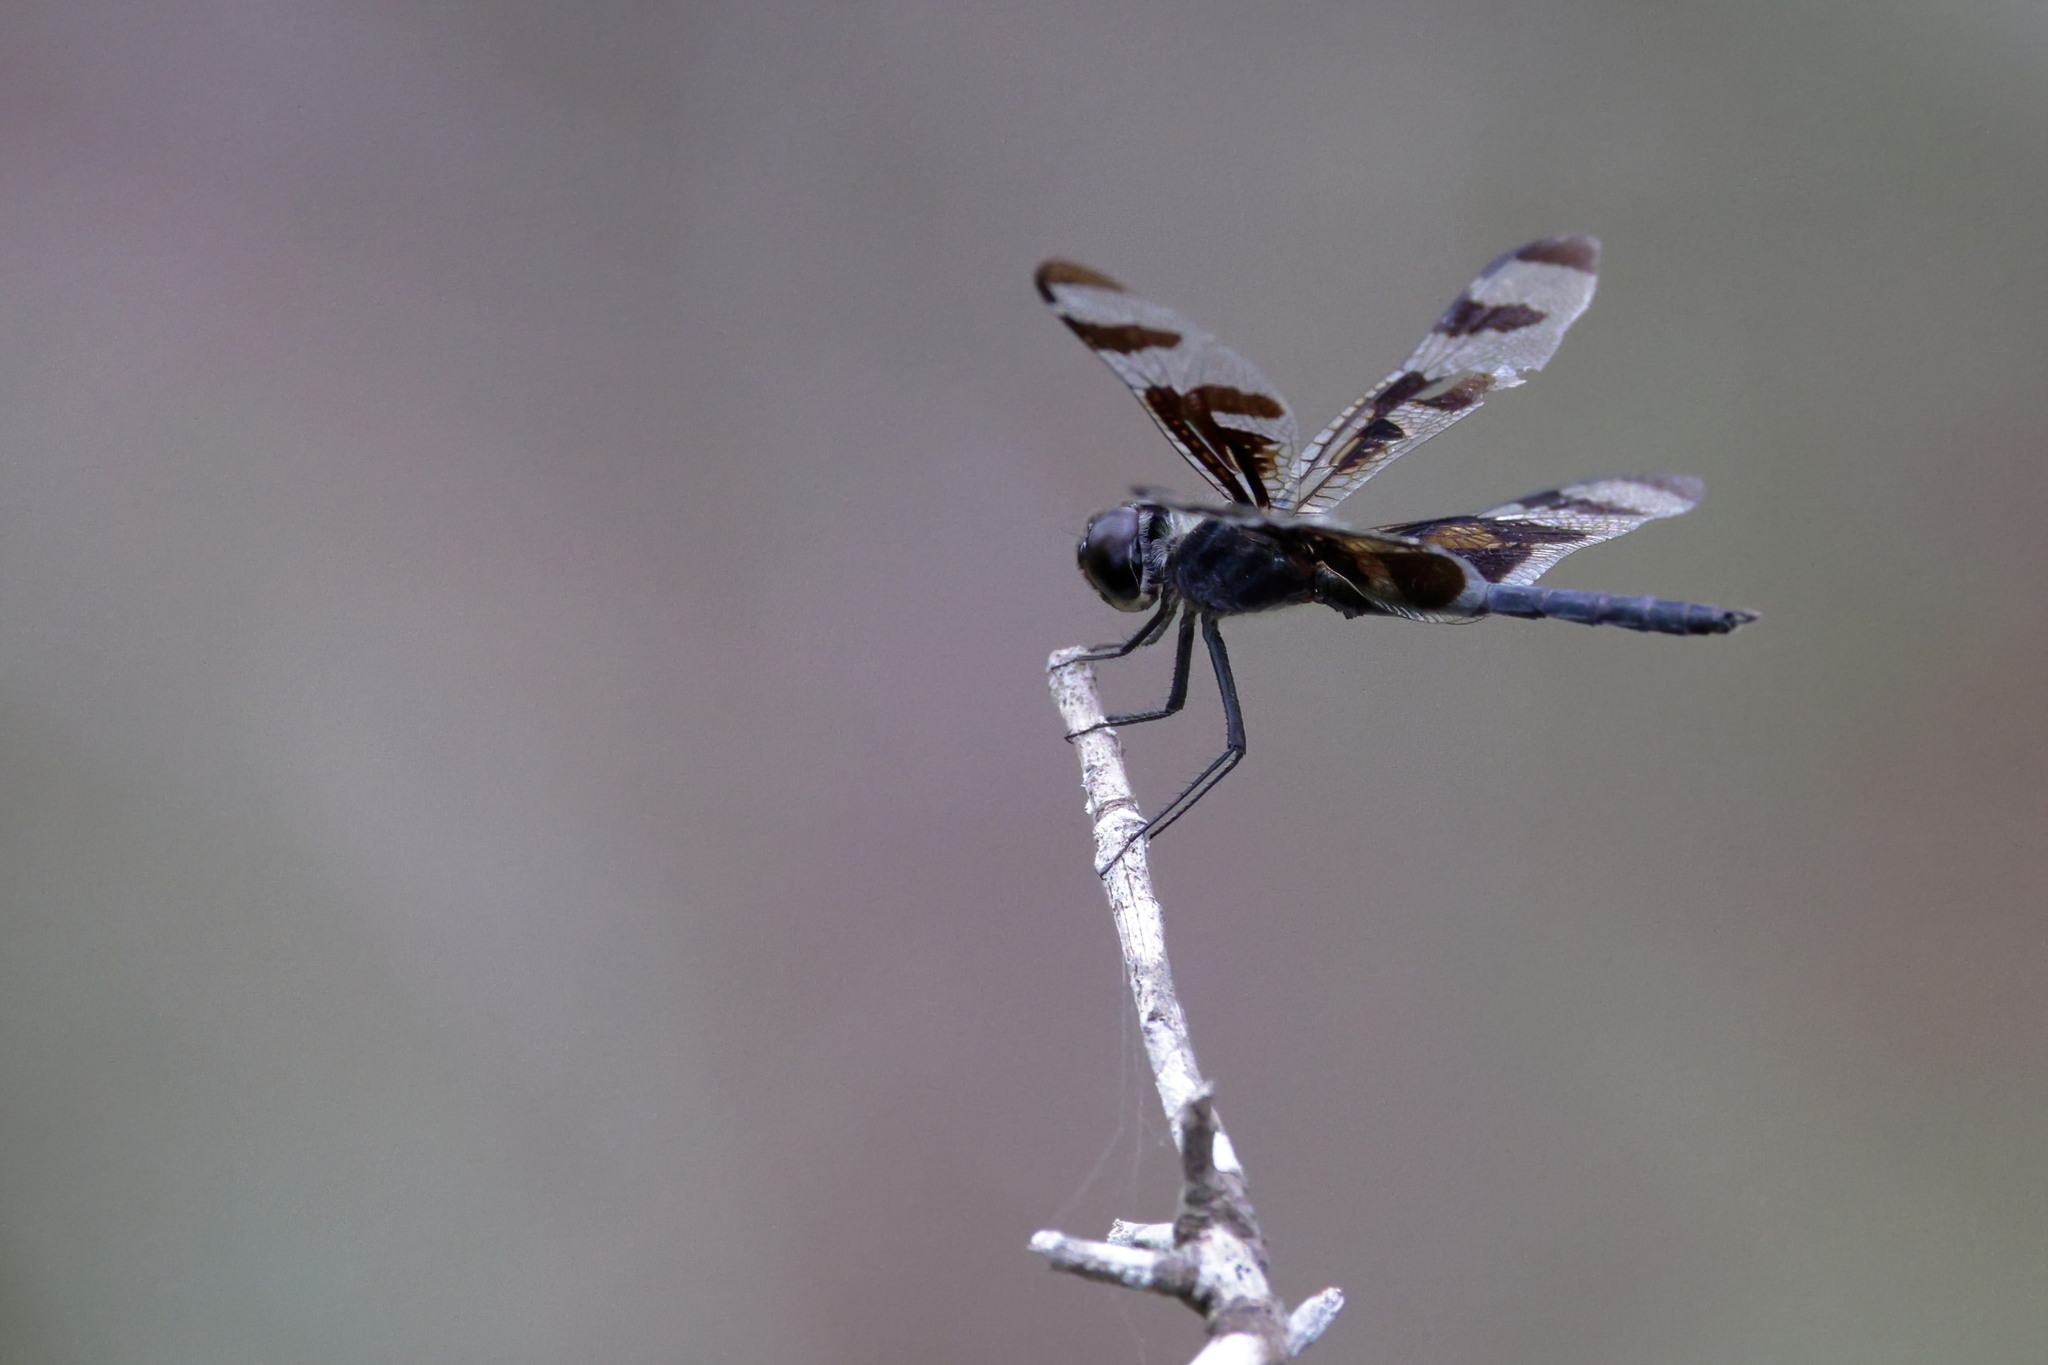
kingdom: Animalia
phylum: Arthropoda
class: Insecta
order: Odonata
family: Libellulidae
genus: Celithemis
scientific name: Celithemis fasciata
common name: Banded pennant
